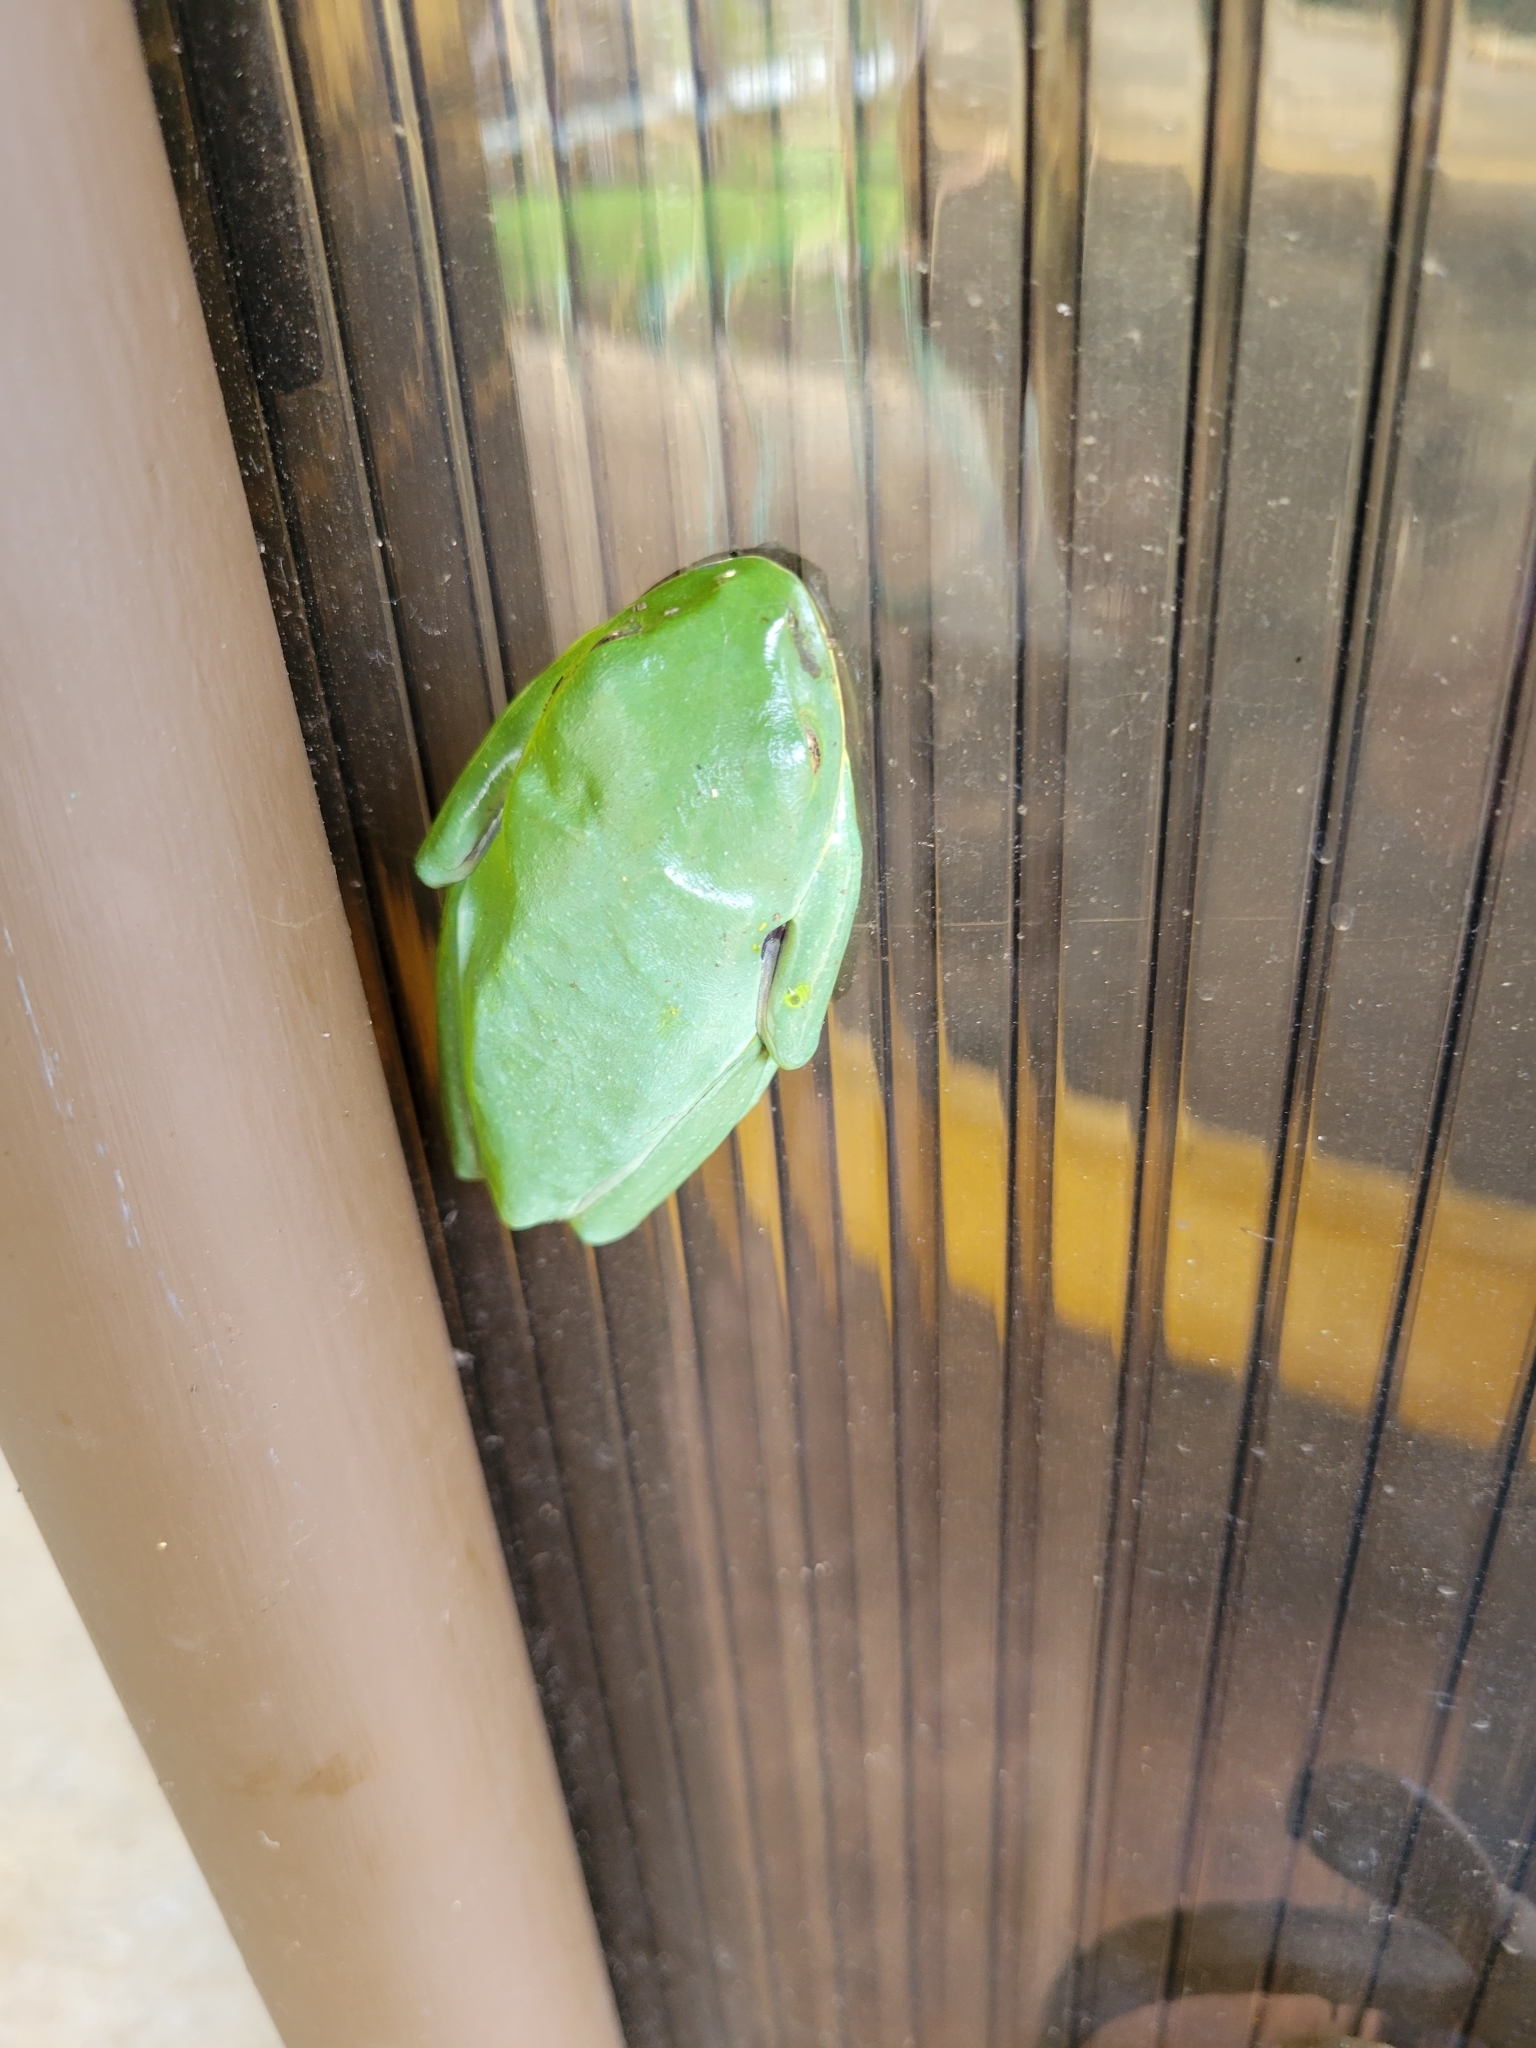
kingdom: Animalia
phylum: Chordata
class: Amphibia
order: Anura
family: Phyllomedusidae
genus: Agalychnis
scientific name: Agalychnis annae
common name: Blue-sided treefrog
